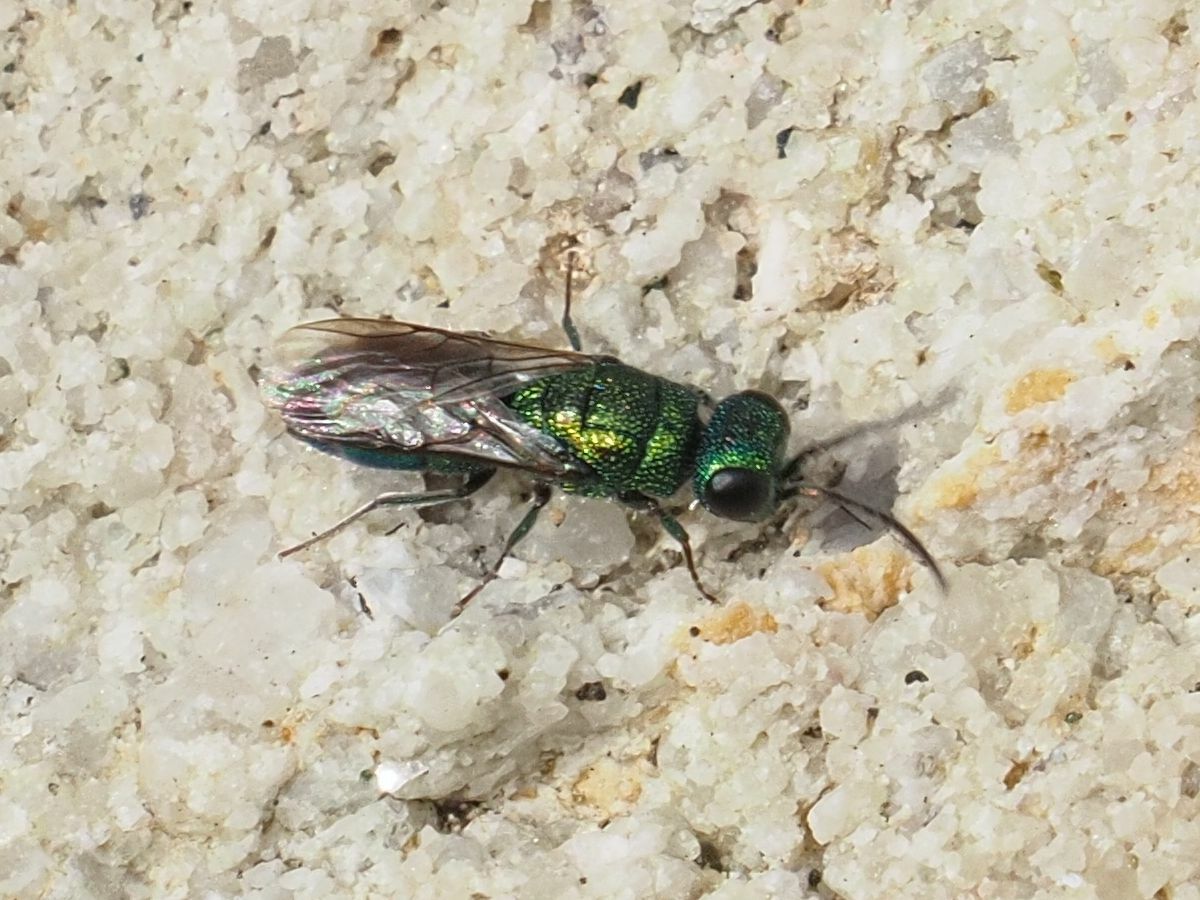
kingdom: Animalia
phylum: Arthropoda
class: Insecta
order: Hymenoptera
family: Pompilidae
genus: Pepsis
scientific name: Pepsis cyanea
